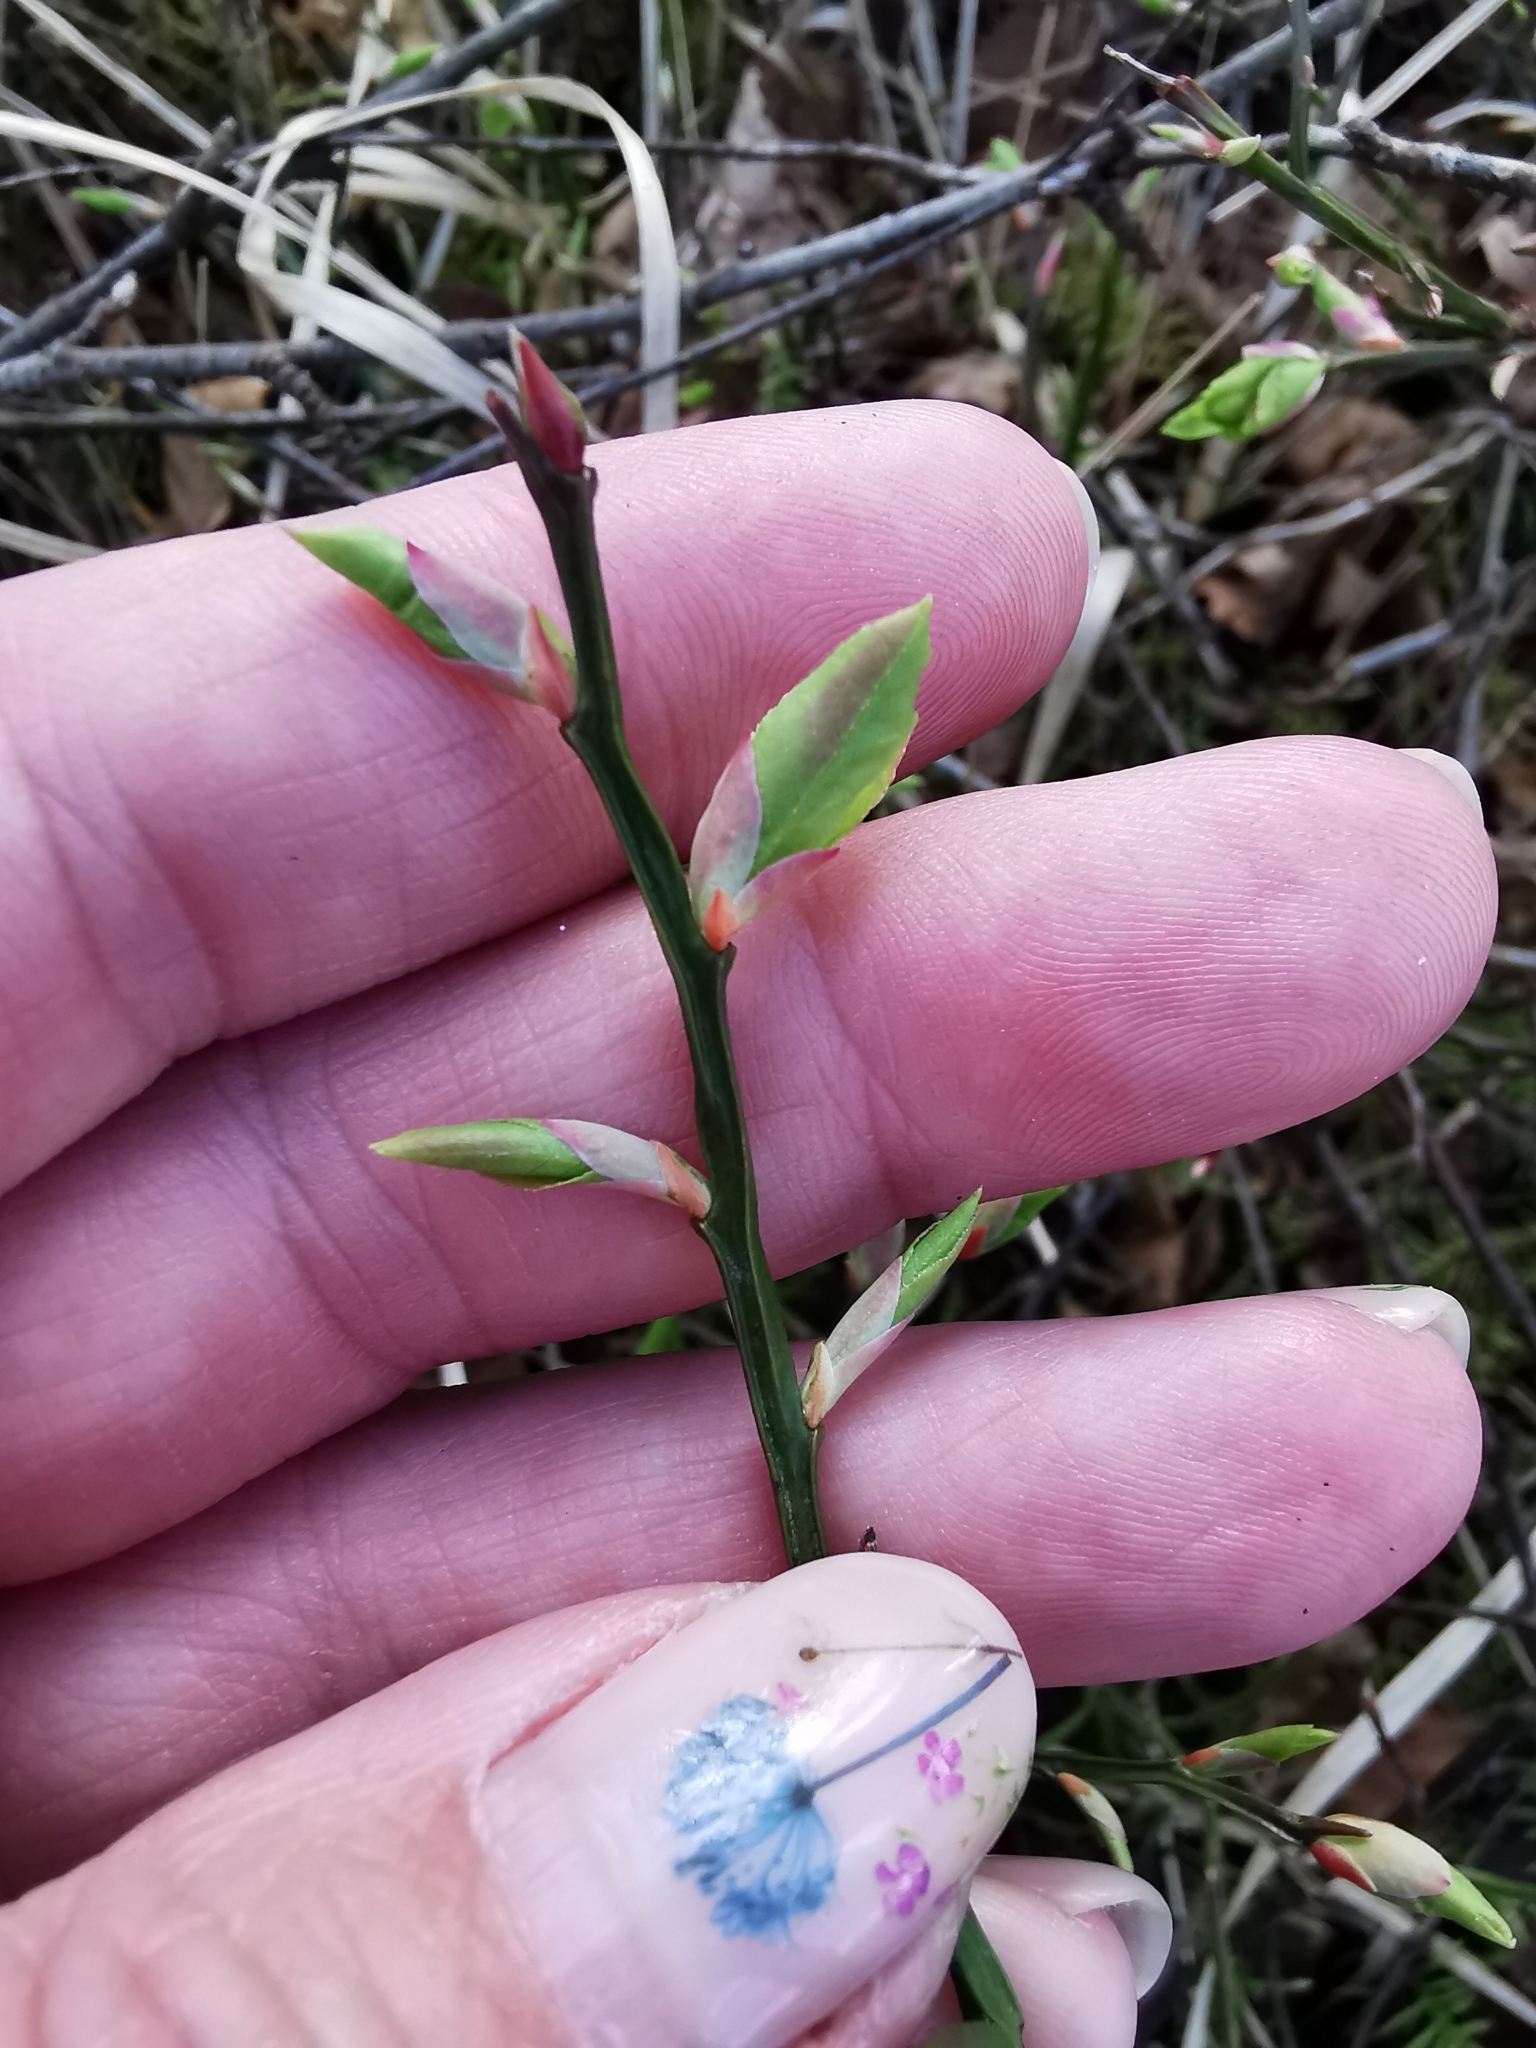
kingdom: Plantae
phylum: Tracheophyta
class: Magnoliopsida
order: Ericales
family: Ericaceae
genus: Vaccinium
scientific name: Vaccinium myrtillus
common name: Bilberry
